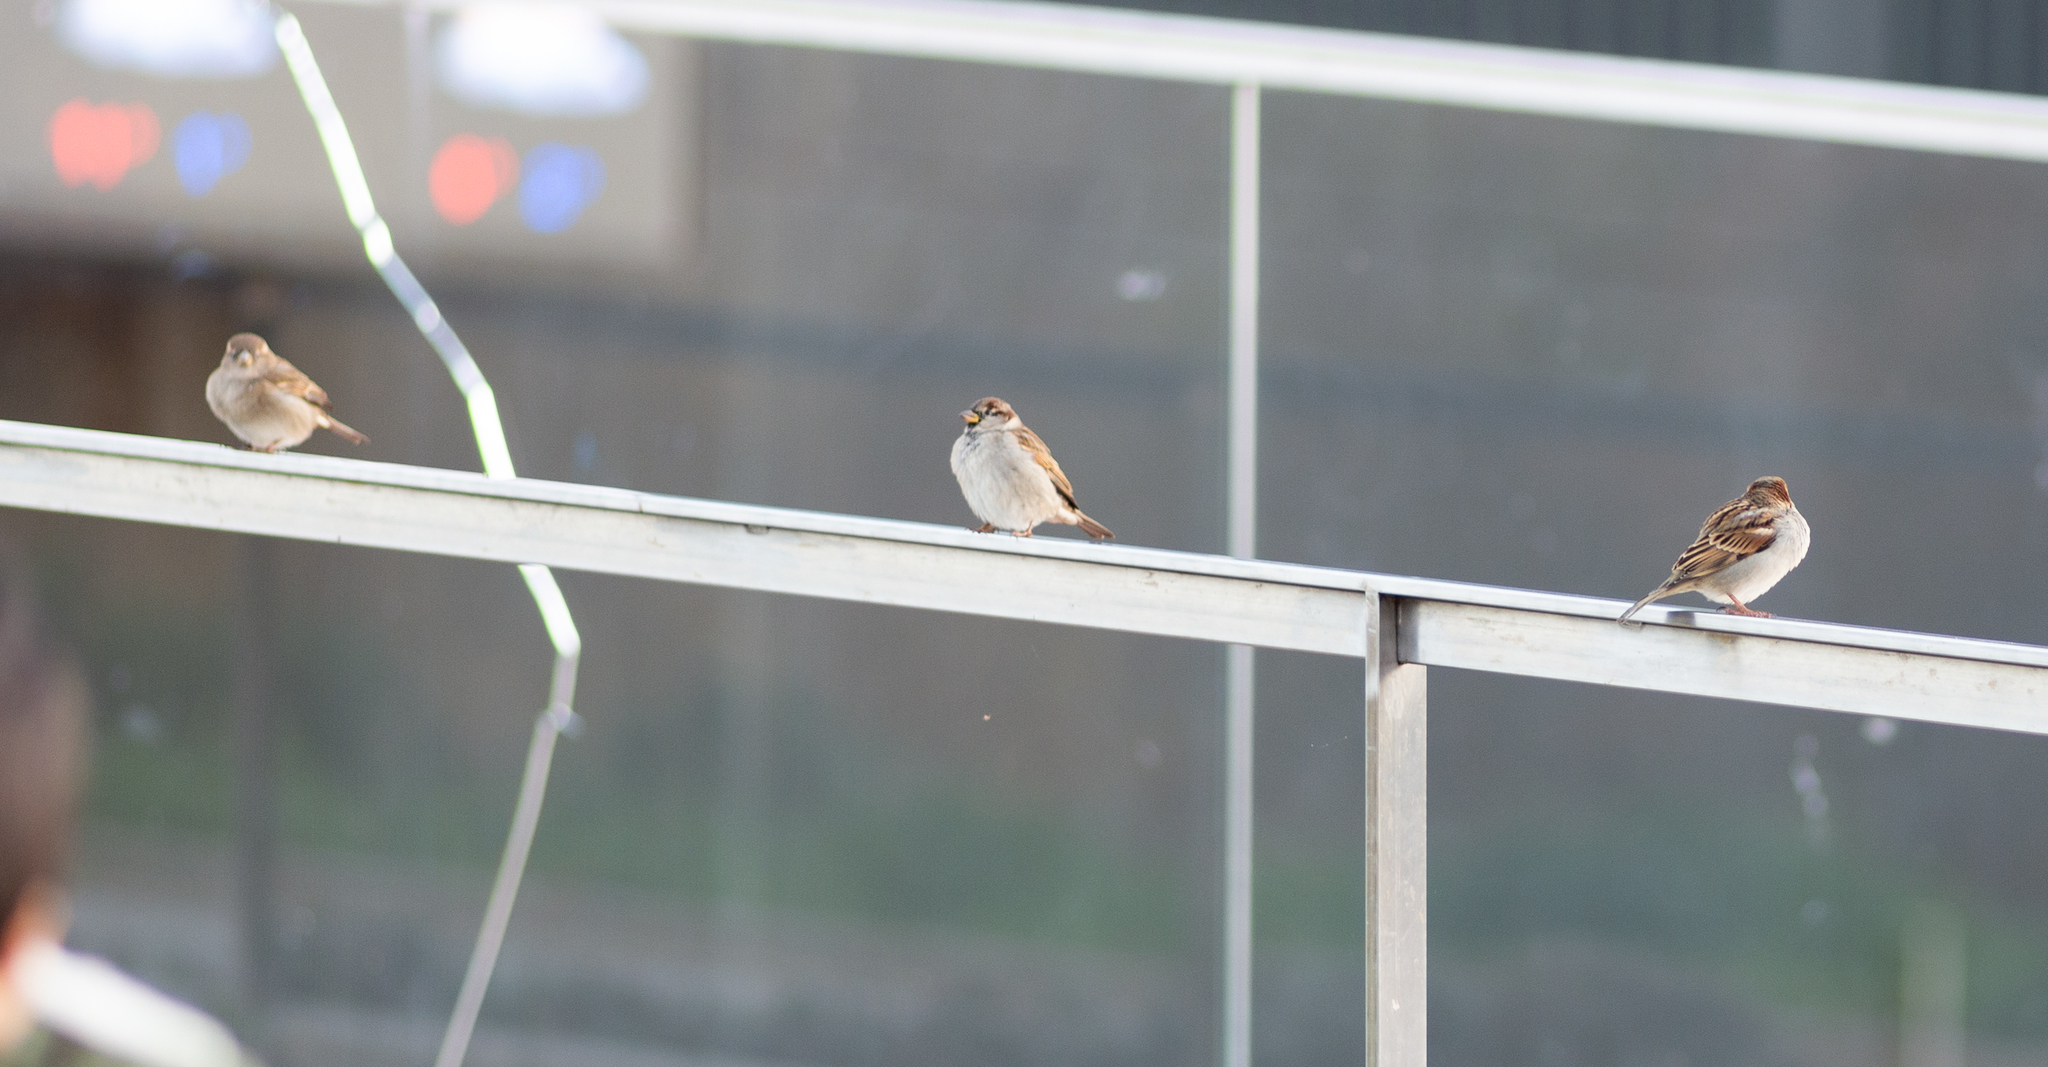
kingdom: Animalia
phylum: Chordata
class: Aves
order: Passeriformes
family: Passeridae
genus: Passer
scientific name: Passer domesticus
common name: House sparrow
